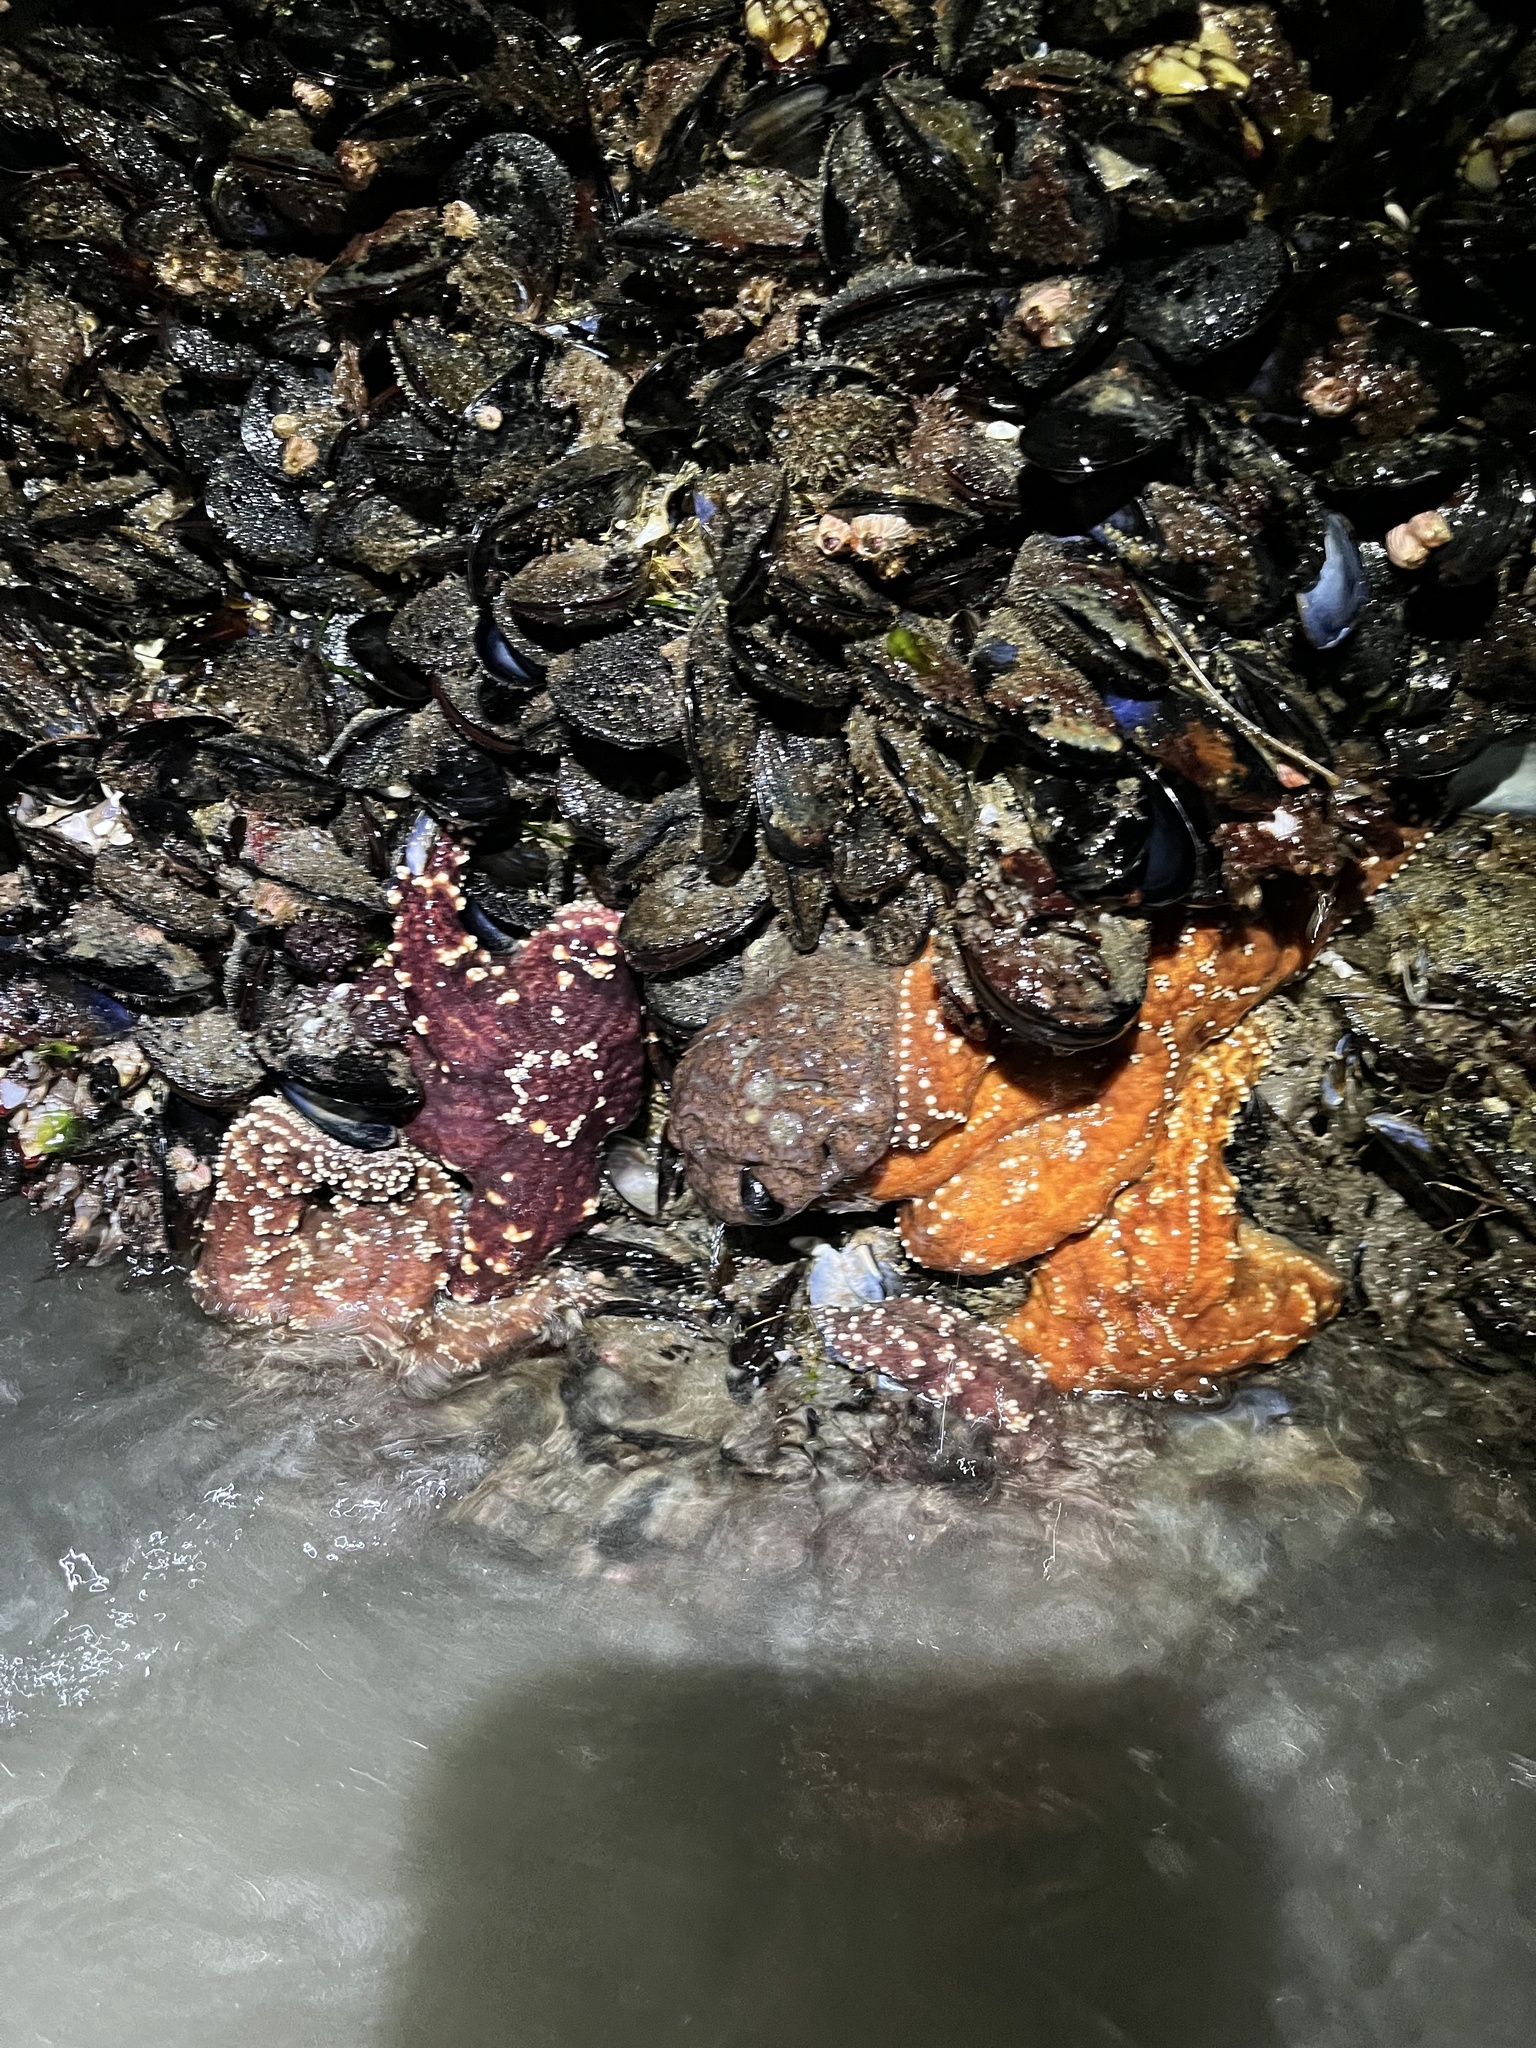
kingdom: Animalia
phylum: Echinodermata
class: Asteroidea
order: Forcipulatida
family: Asteriidae
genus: Pisaster
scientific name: Pisaster ochraceus
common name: Ochre stars
